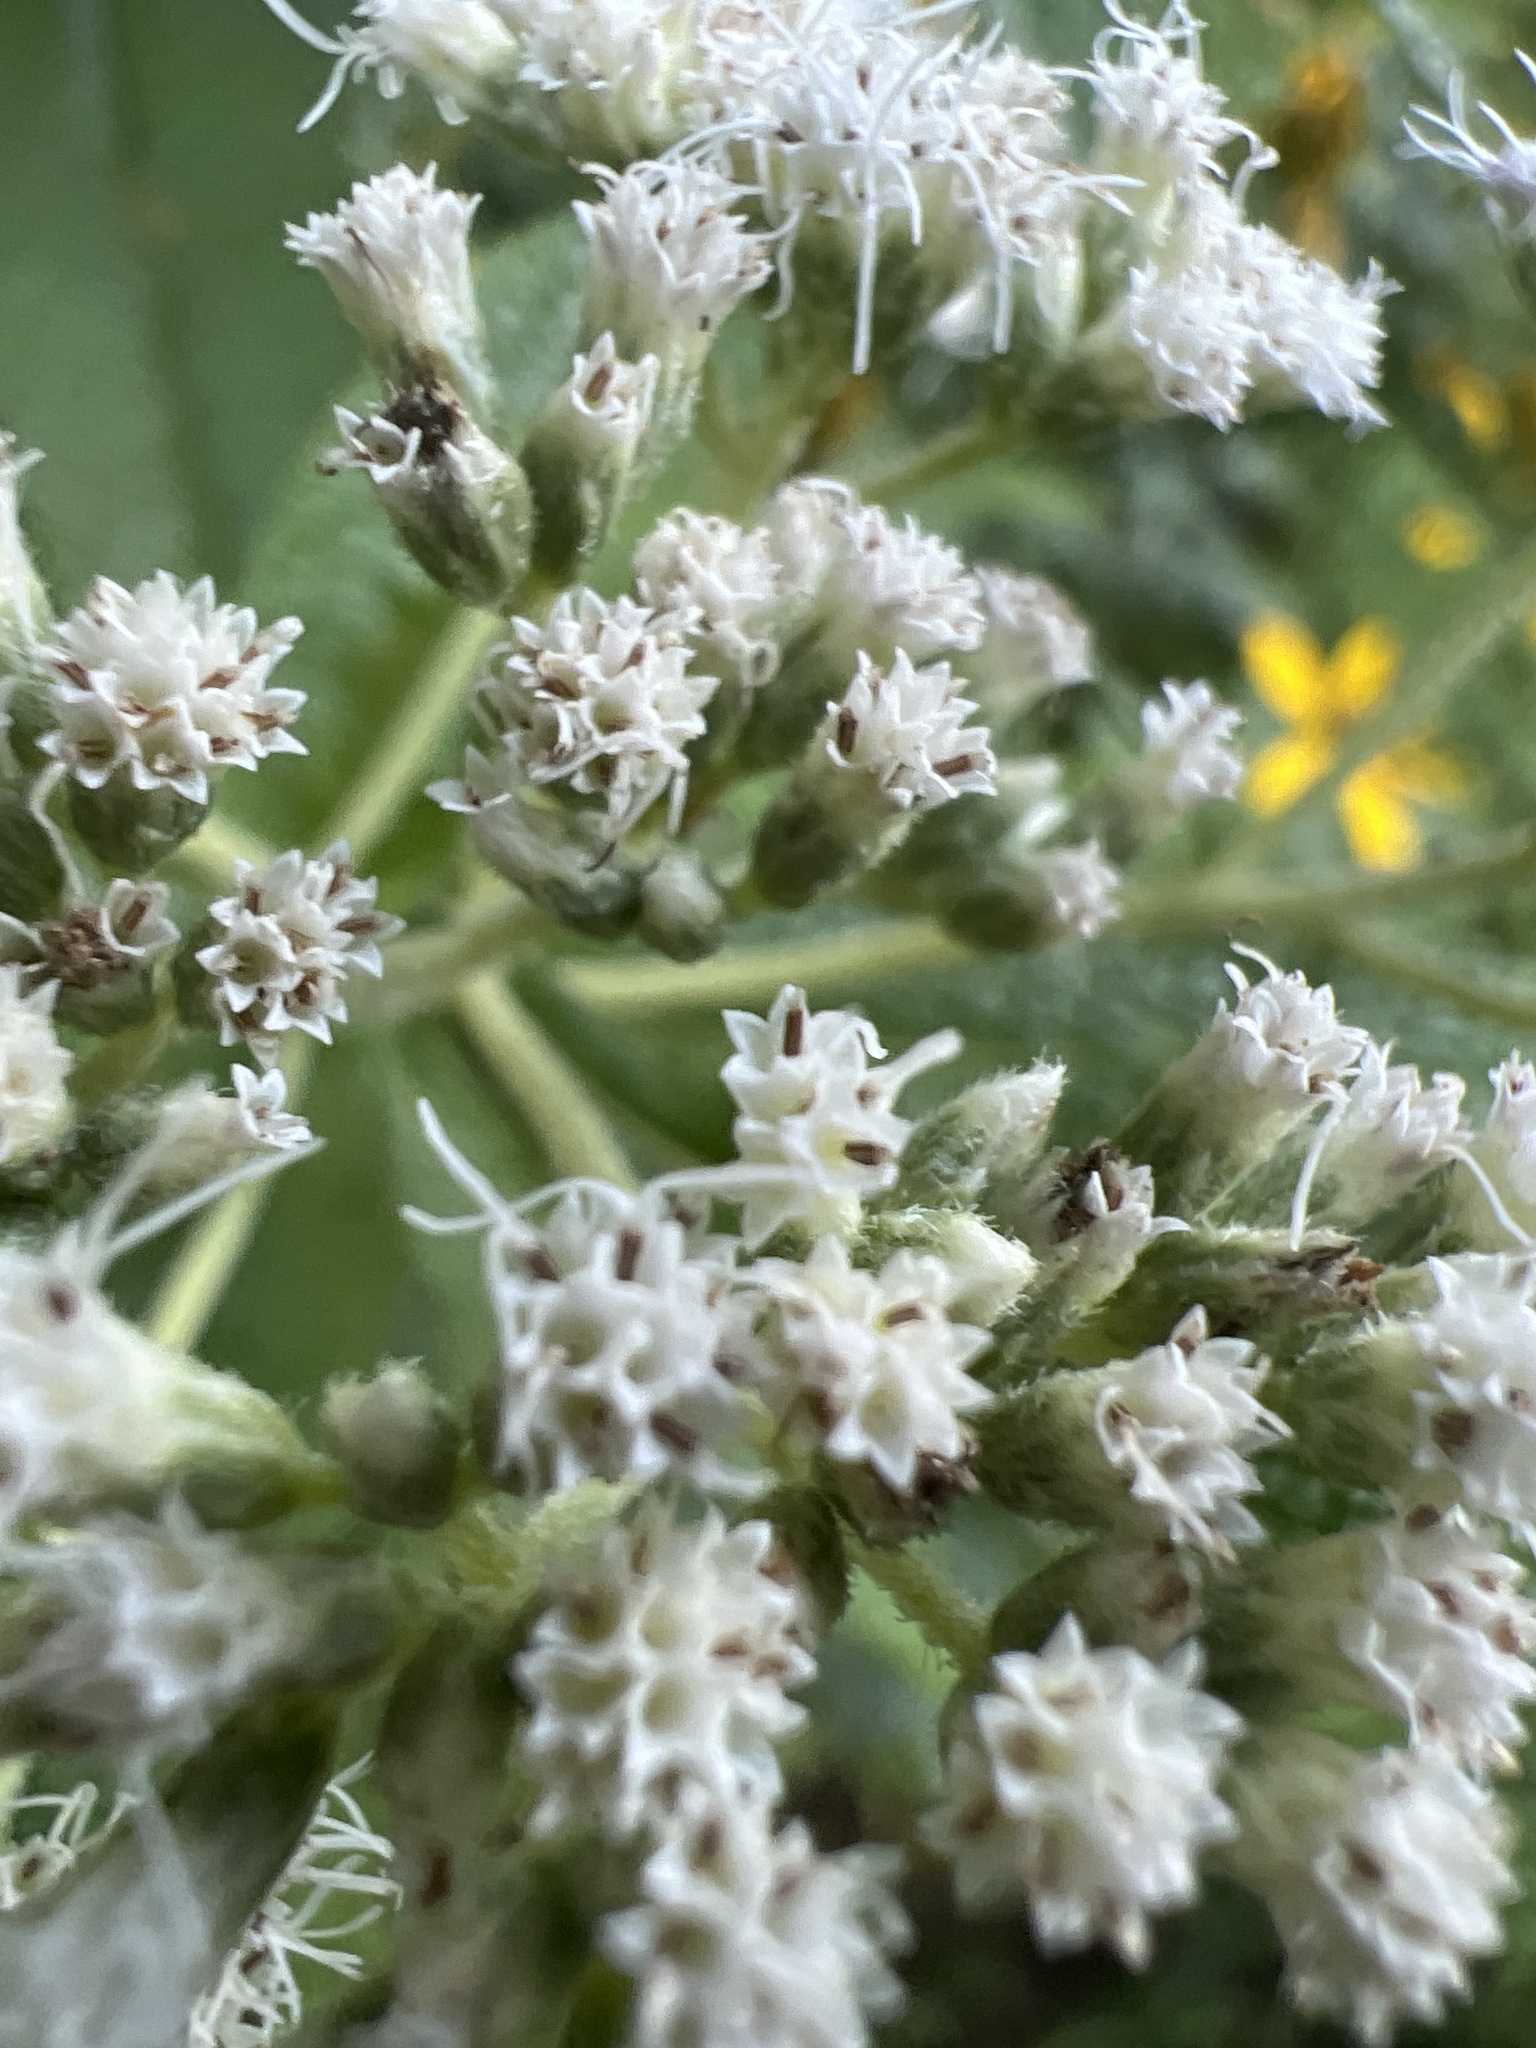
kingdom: Plantae
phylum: Tracheophyta
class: Magnoliopsida
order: Asterales
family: Asteraceae
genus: Eupatorium
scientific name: Eupatorium perfoliatum
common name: Boneset
